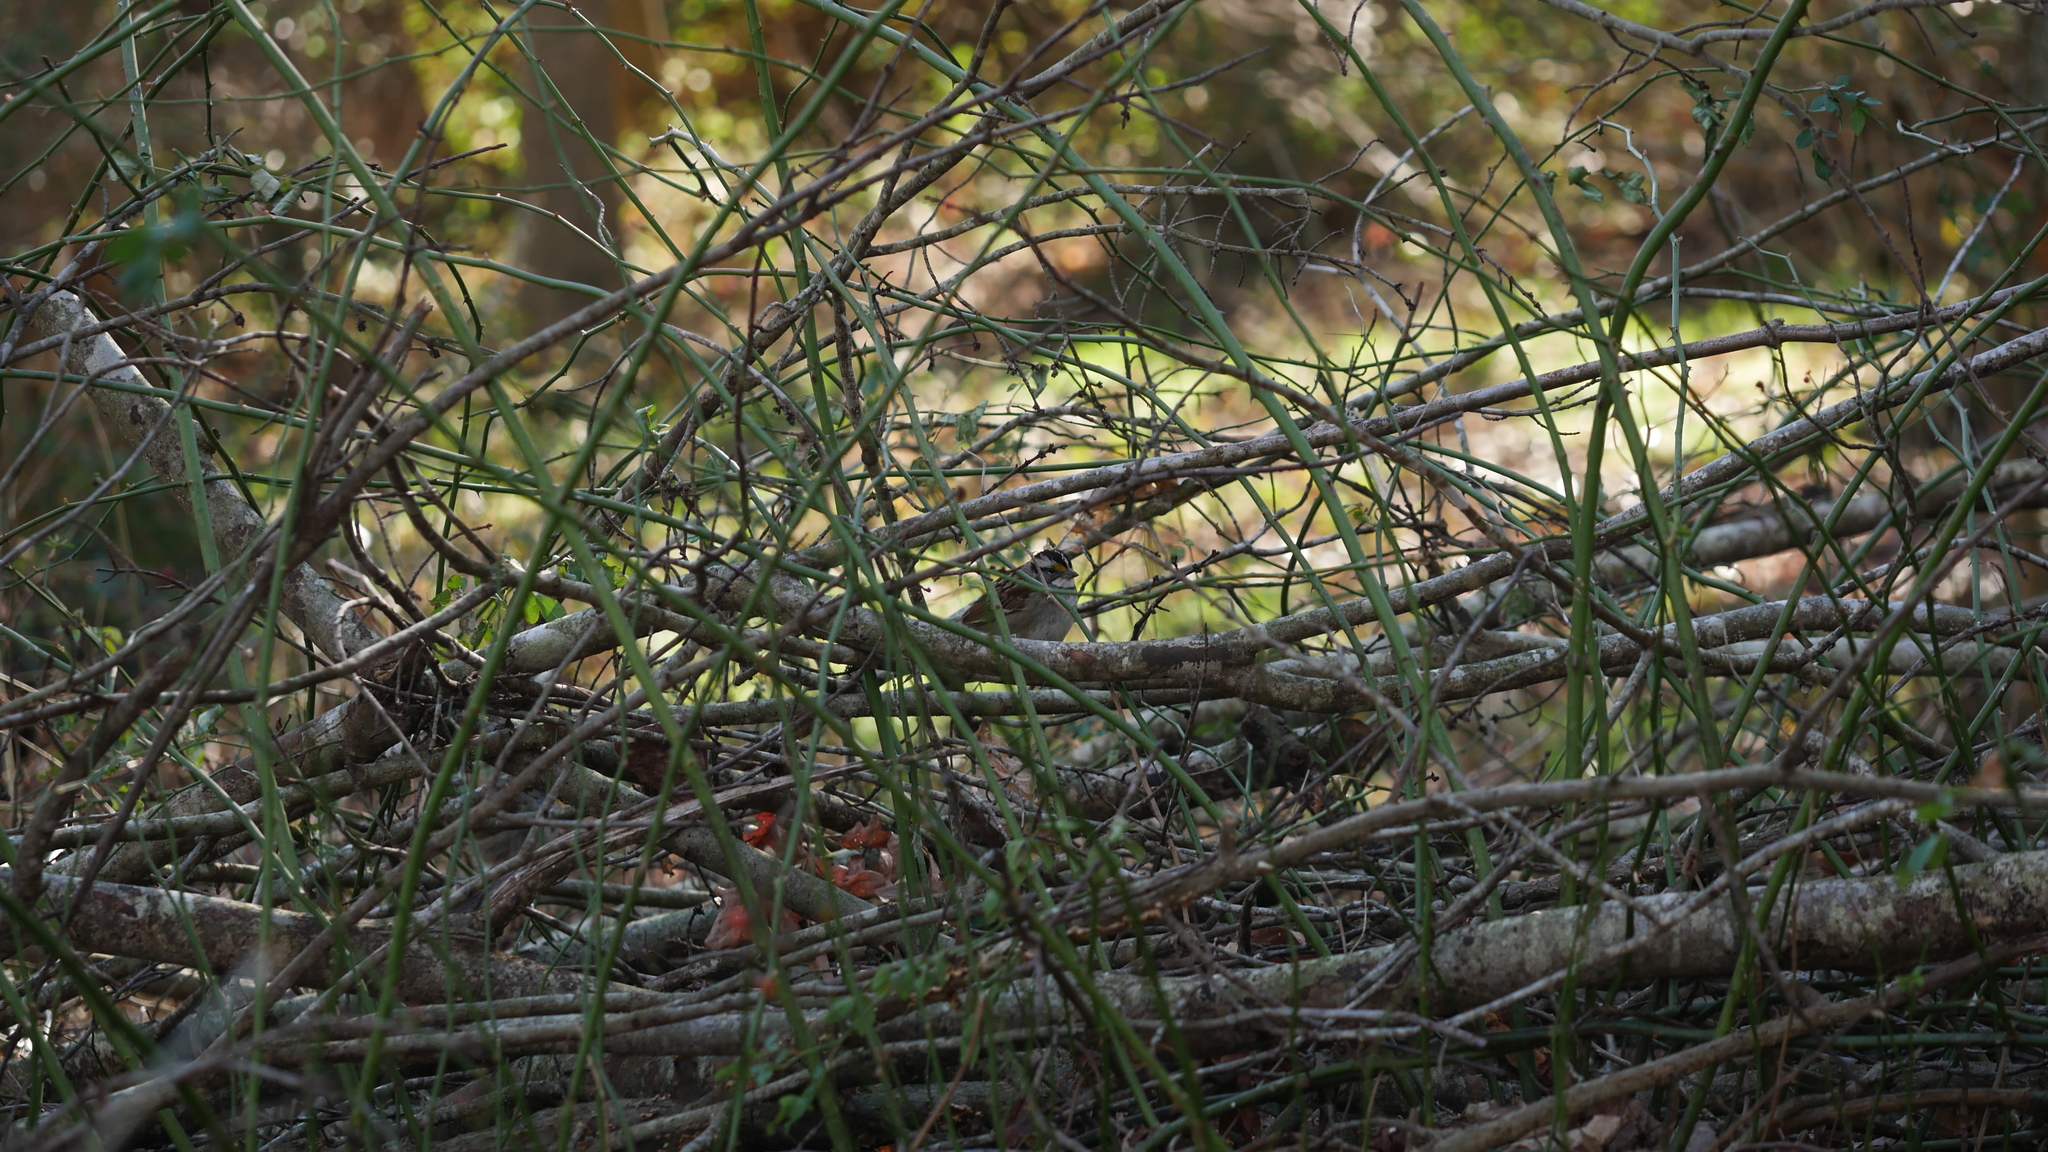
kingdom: Animalia
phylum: Chordata
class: Aves
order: Passeriformes
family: Passerellidae
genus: Zonotrichia
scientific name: Zonotrichia albicollis
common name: White-throated sparrow
